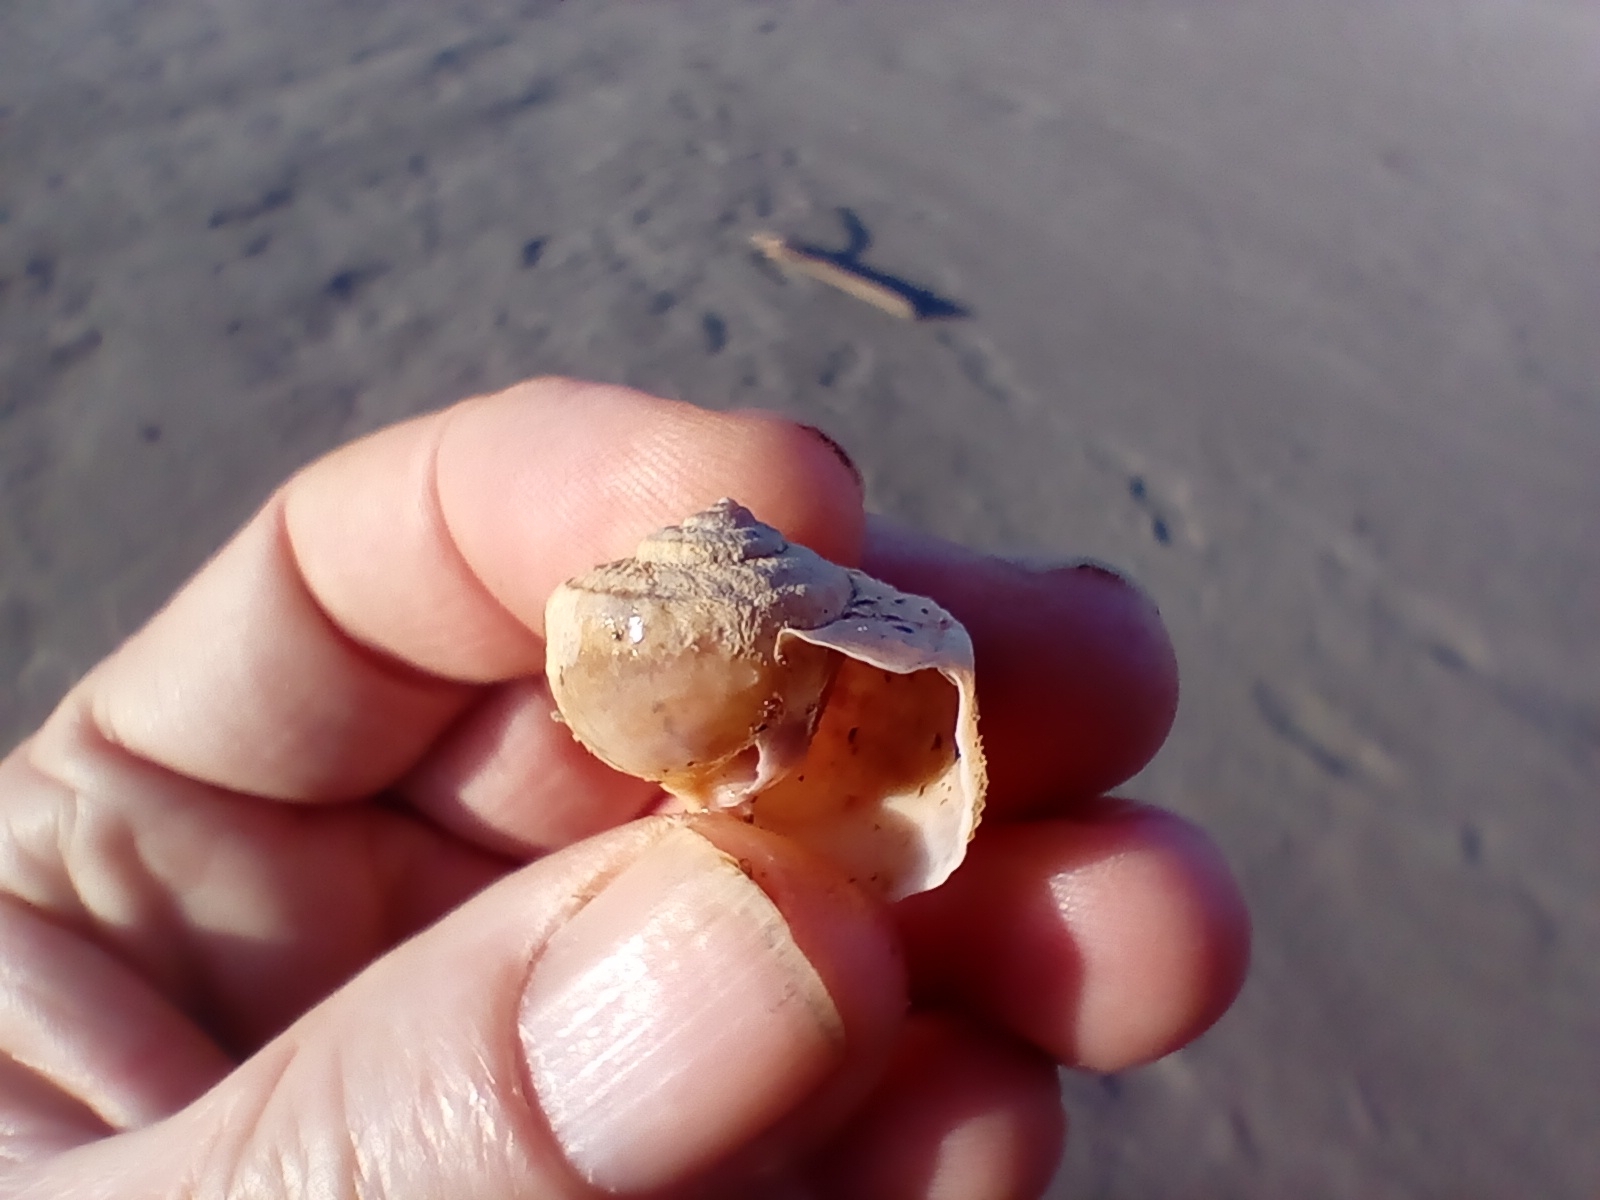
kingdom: Animalia
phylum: Mollusca
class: Gastropoda
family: Amphibolidae
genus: Amphibola
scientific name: Amphibola crenata
